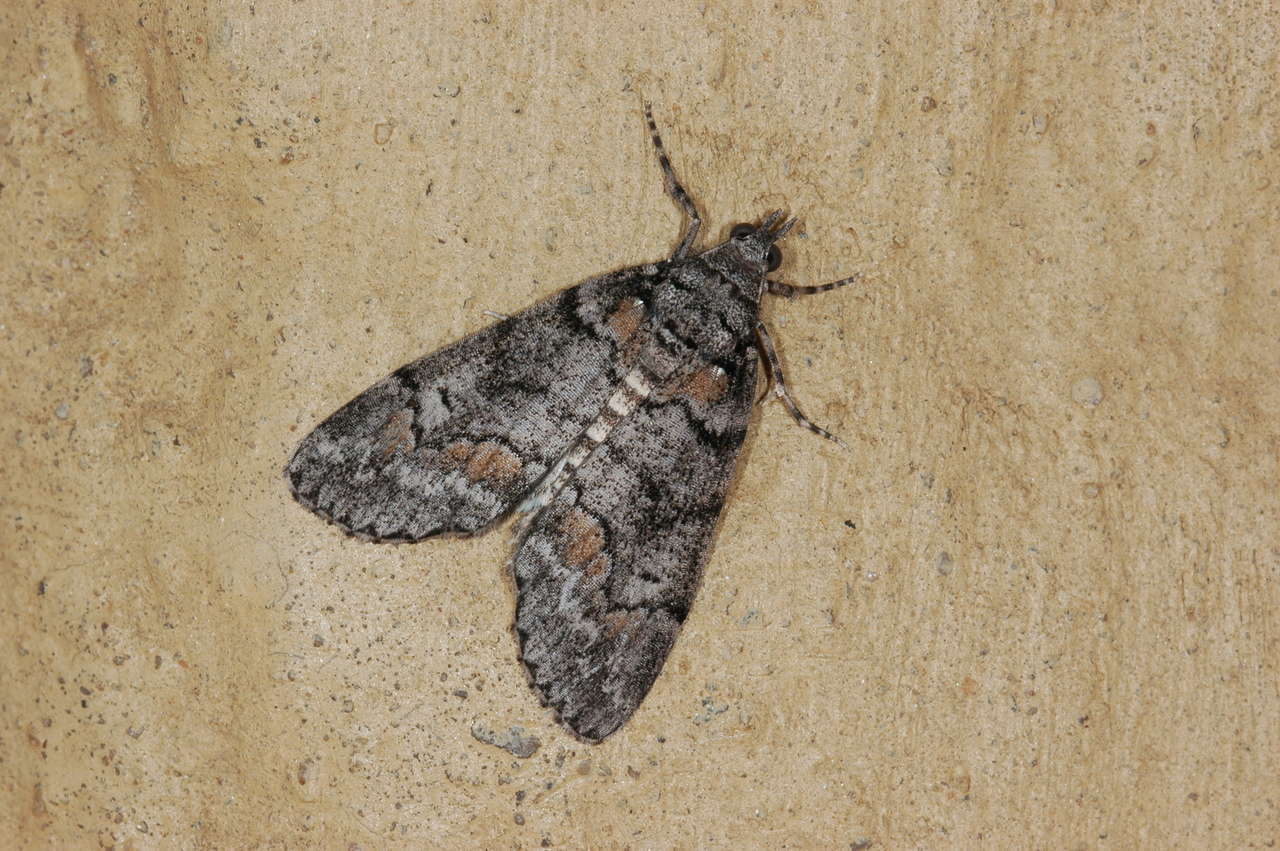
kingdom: Animalia
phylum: Arthropoda
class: Insecta
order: Lepidoptera
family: Geometridae
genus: Smyriodes
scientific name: Smyriodes trigramma
